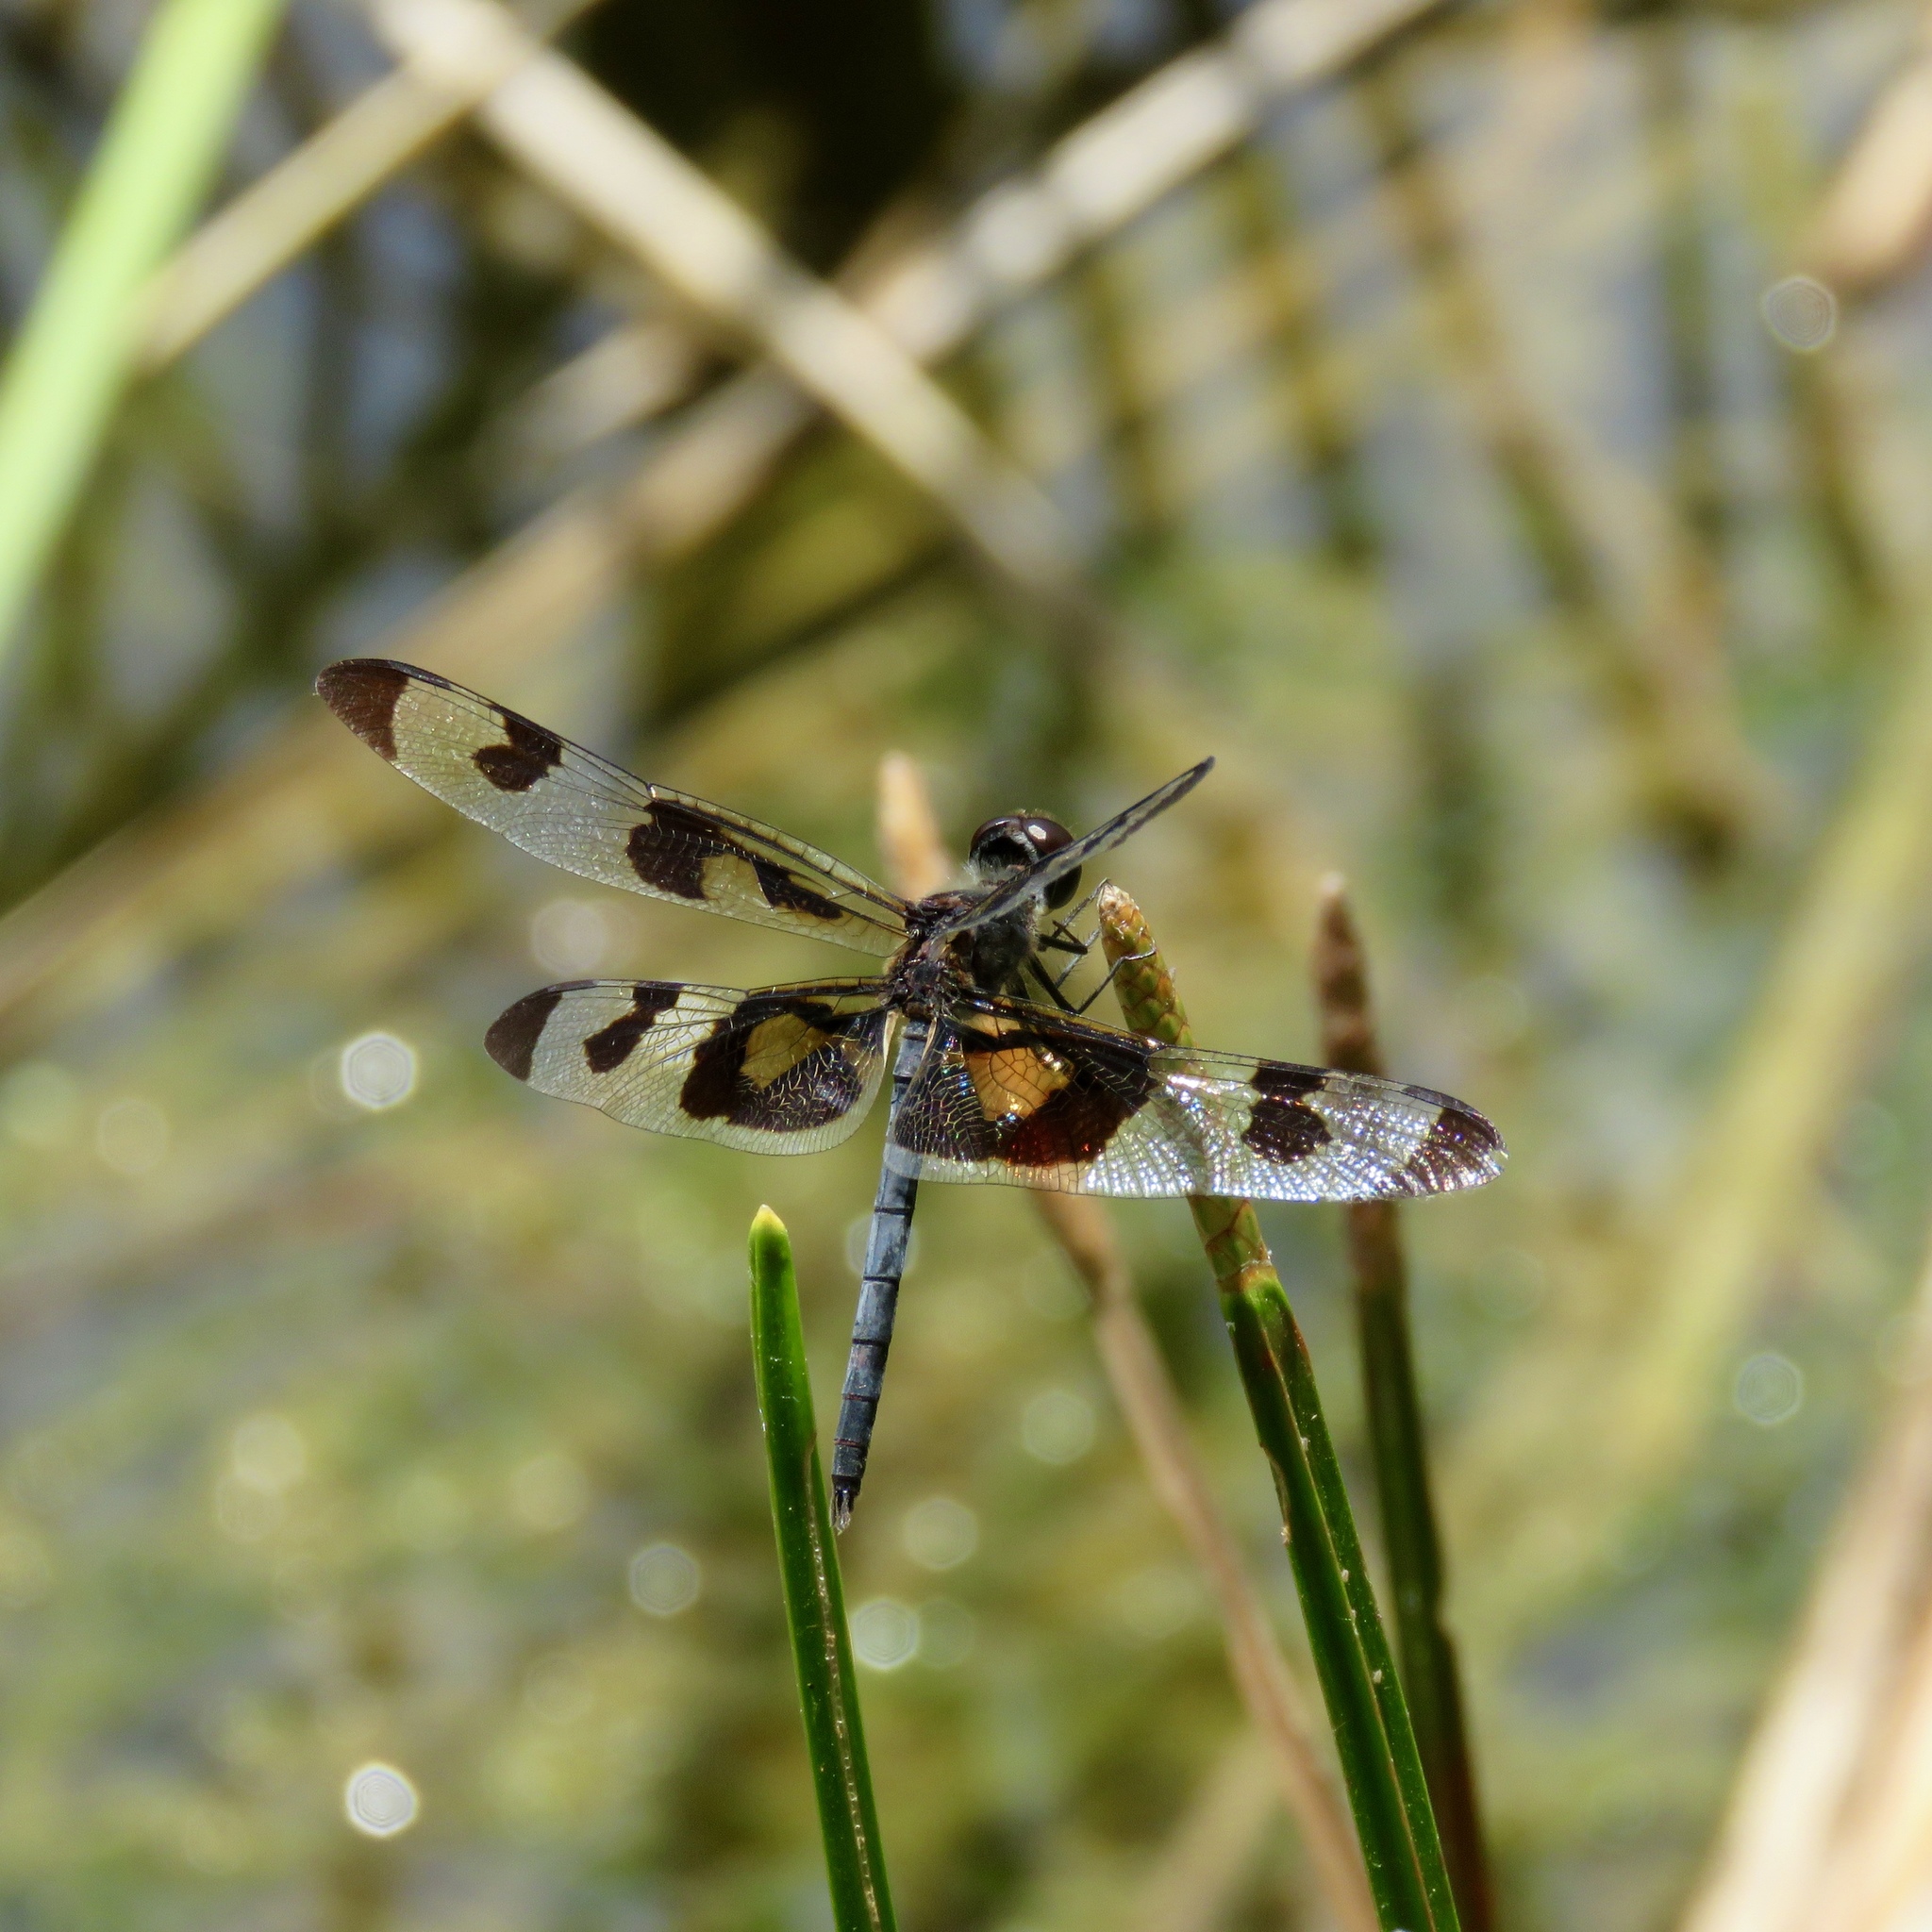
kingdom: Animalia
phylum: Arthropoda
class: Insecta
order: Odonata
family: Libellulidae
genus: Celithemis
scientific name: Celithemis fasciata
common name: Banded pennant
